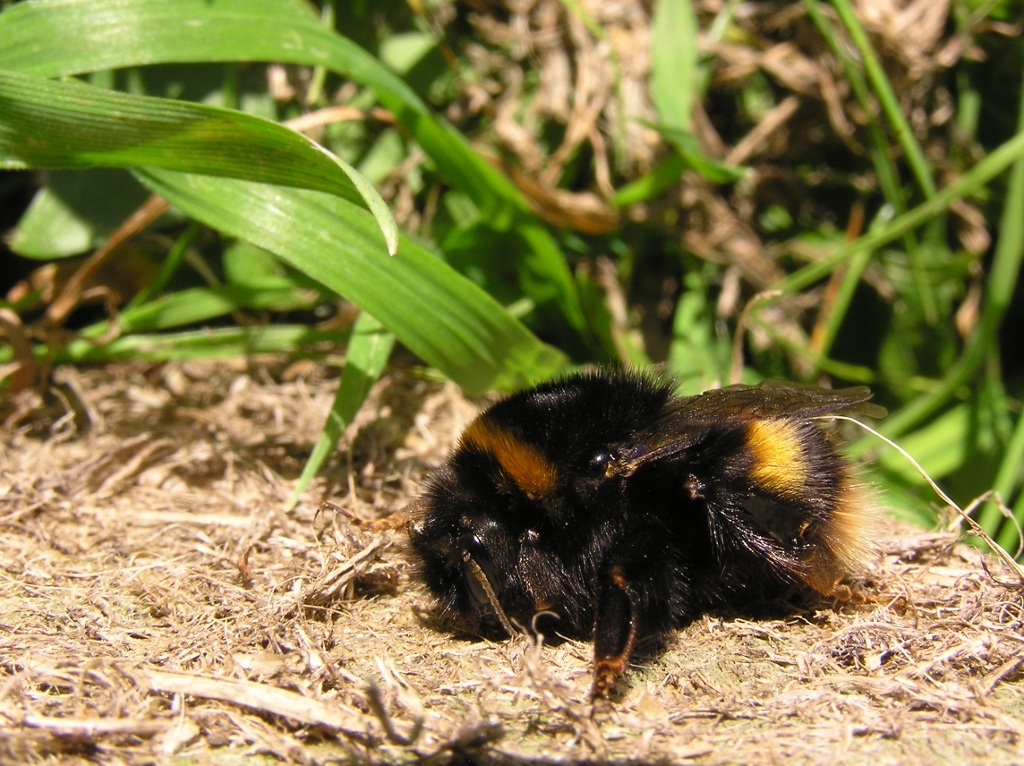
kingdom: Animalia
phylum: Arthropoda
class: Insecta
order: Hymenoptera
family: Apidae
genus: Bombus
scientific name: Bombus terrestris
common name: Buff-tailed bumblebee
